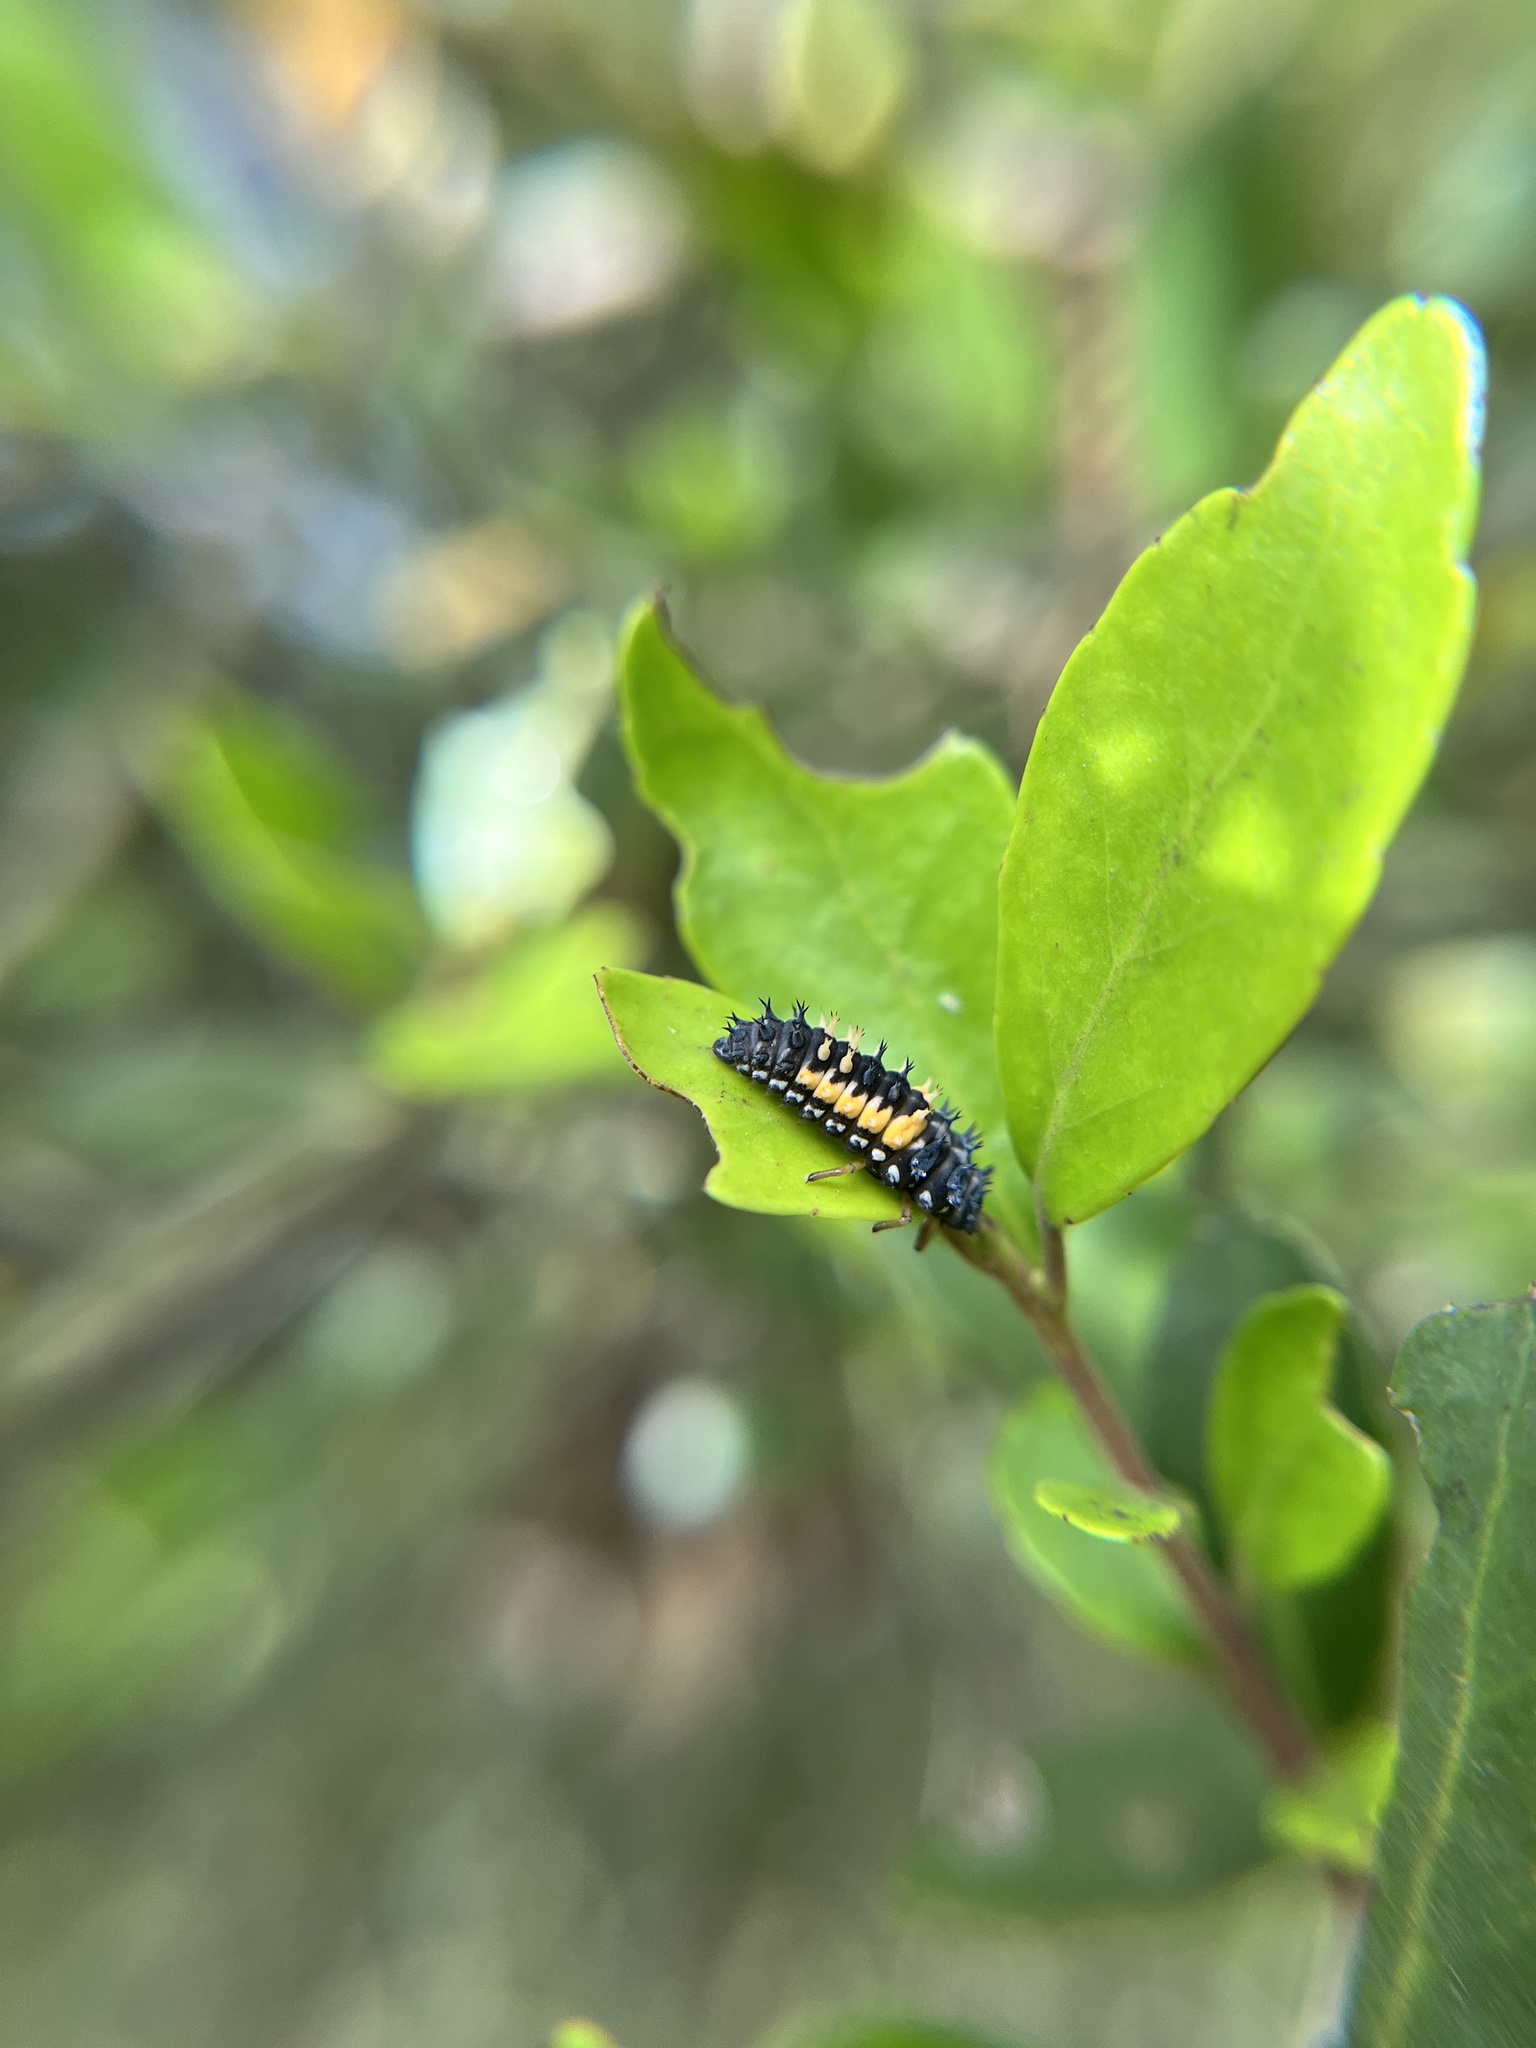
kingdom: Animalia
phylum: Arthropoda
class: Insecta
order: Coleoptera
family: Coccinellidae
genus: Harmonia
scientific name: Harmonia axyridis
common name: Harlequin ladybird
